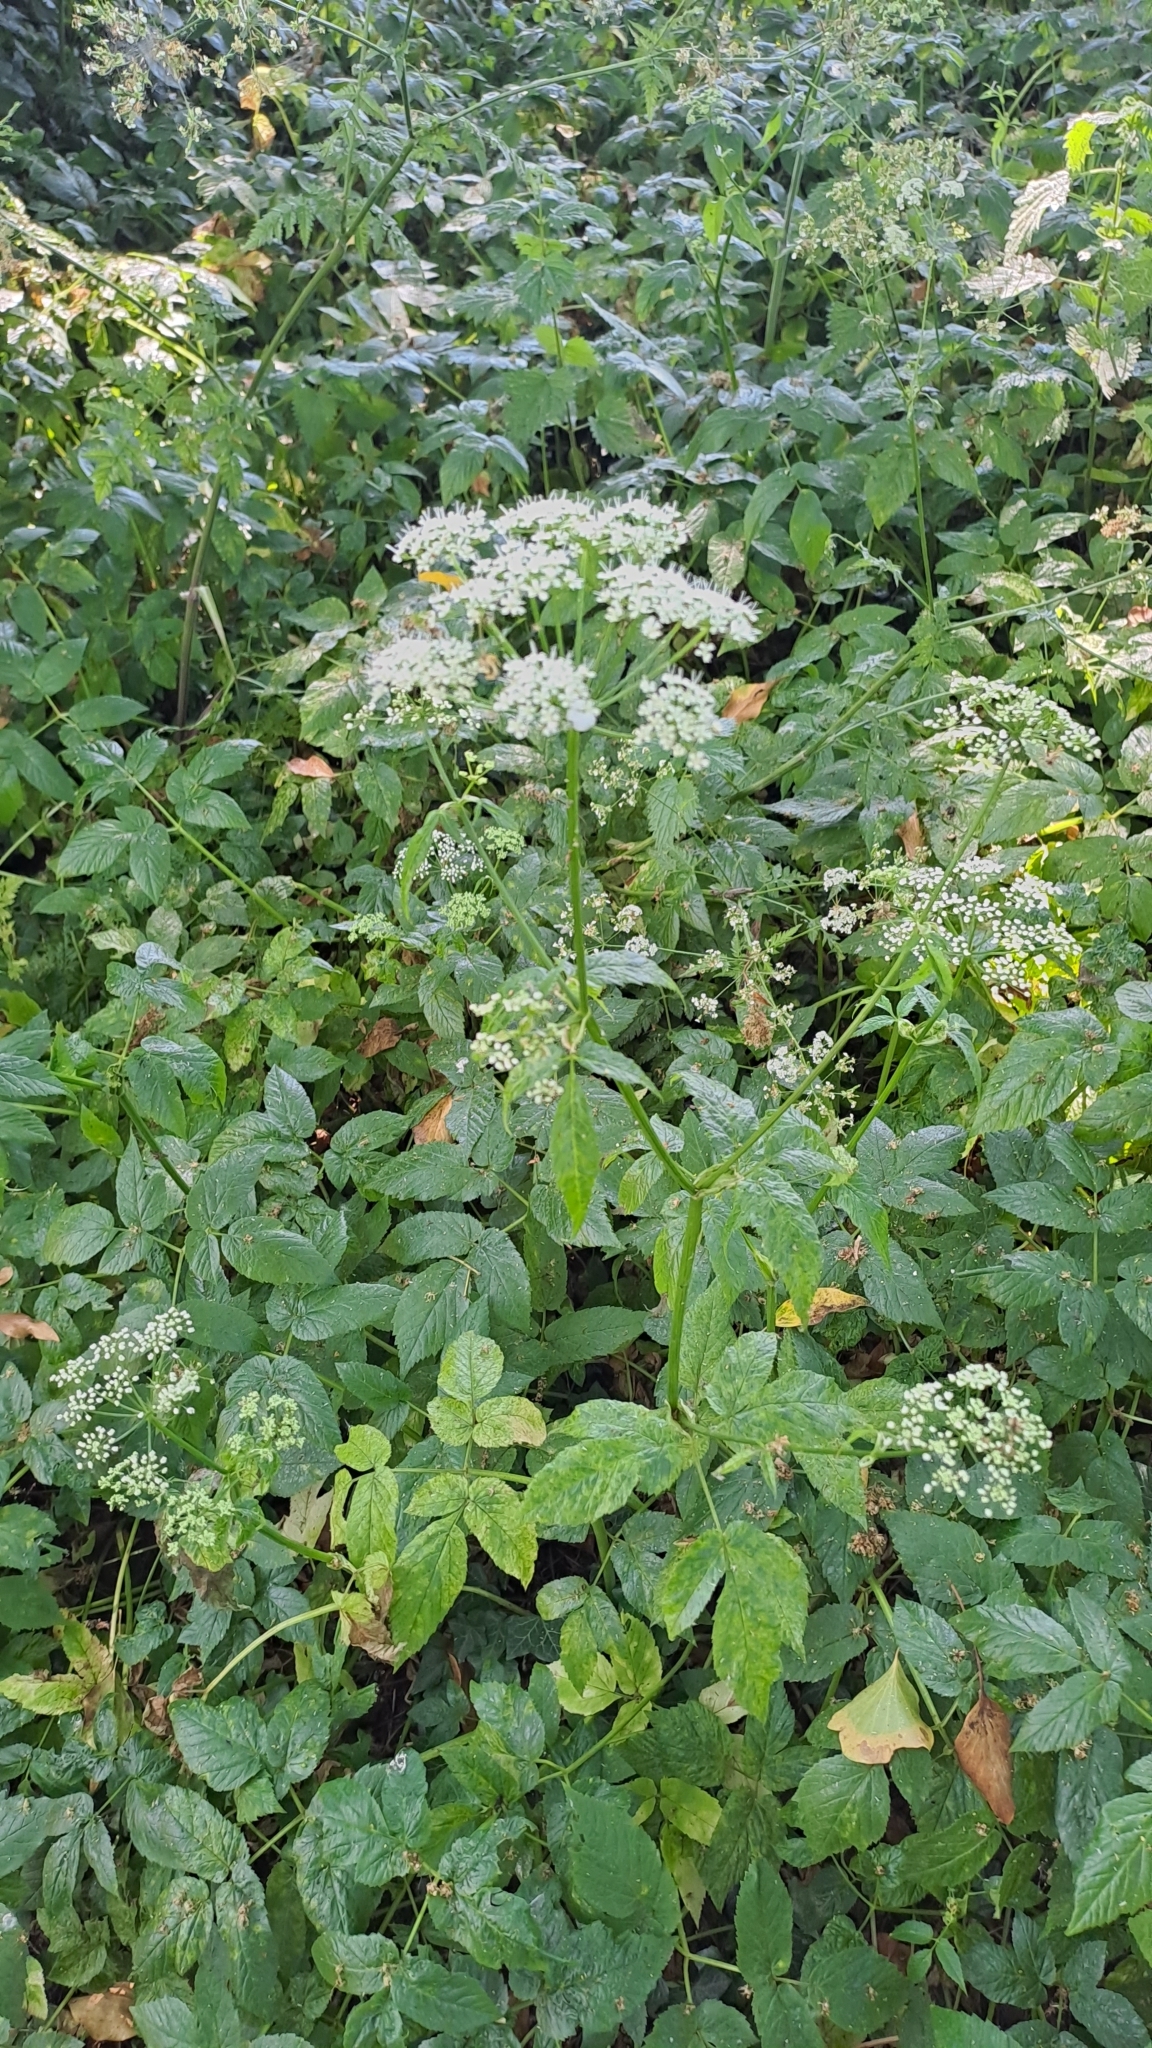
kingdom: Plantae
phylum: Tracheophyta
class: Magnoliopsida
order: Apiales
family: Apiaceae
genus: Aegopodium
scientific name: Aegopodium podagraria
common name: Ground-elder
